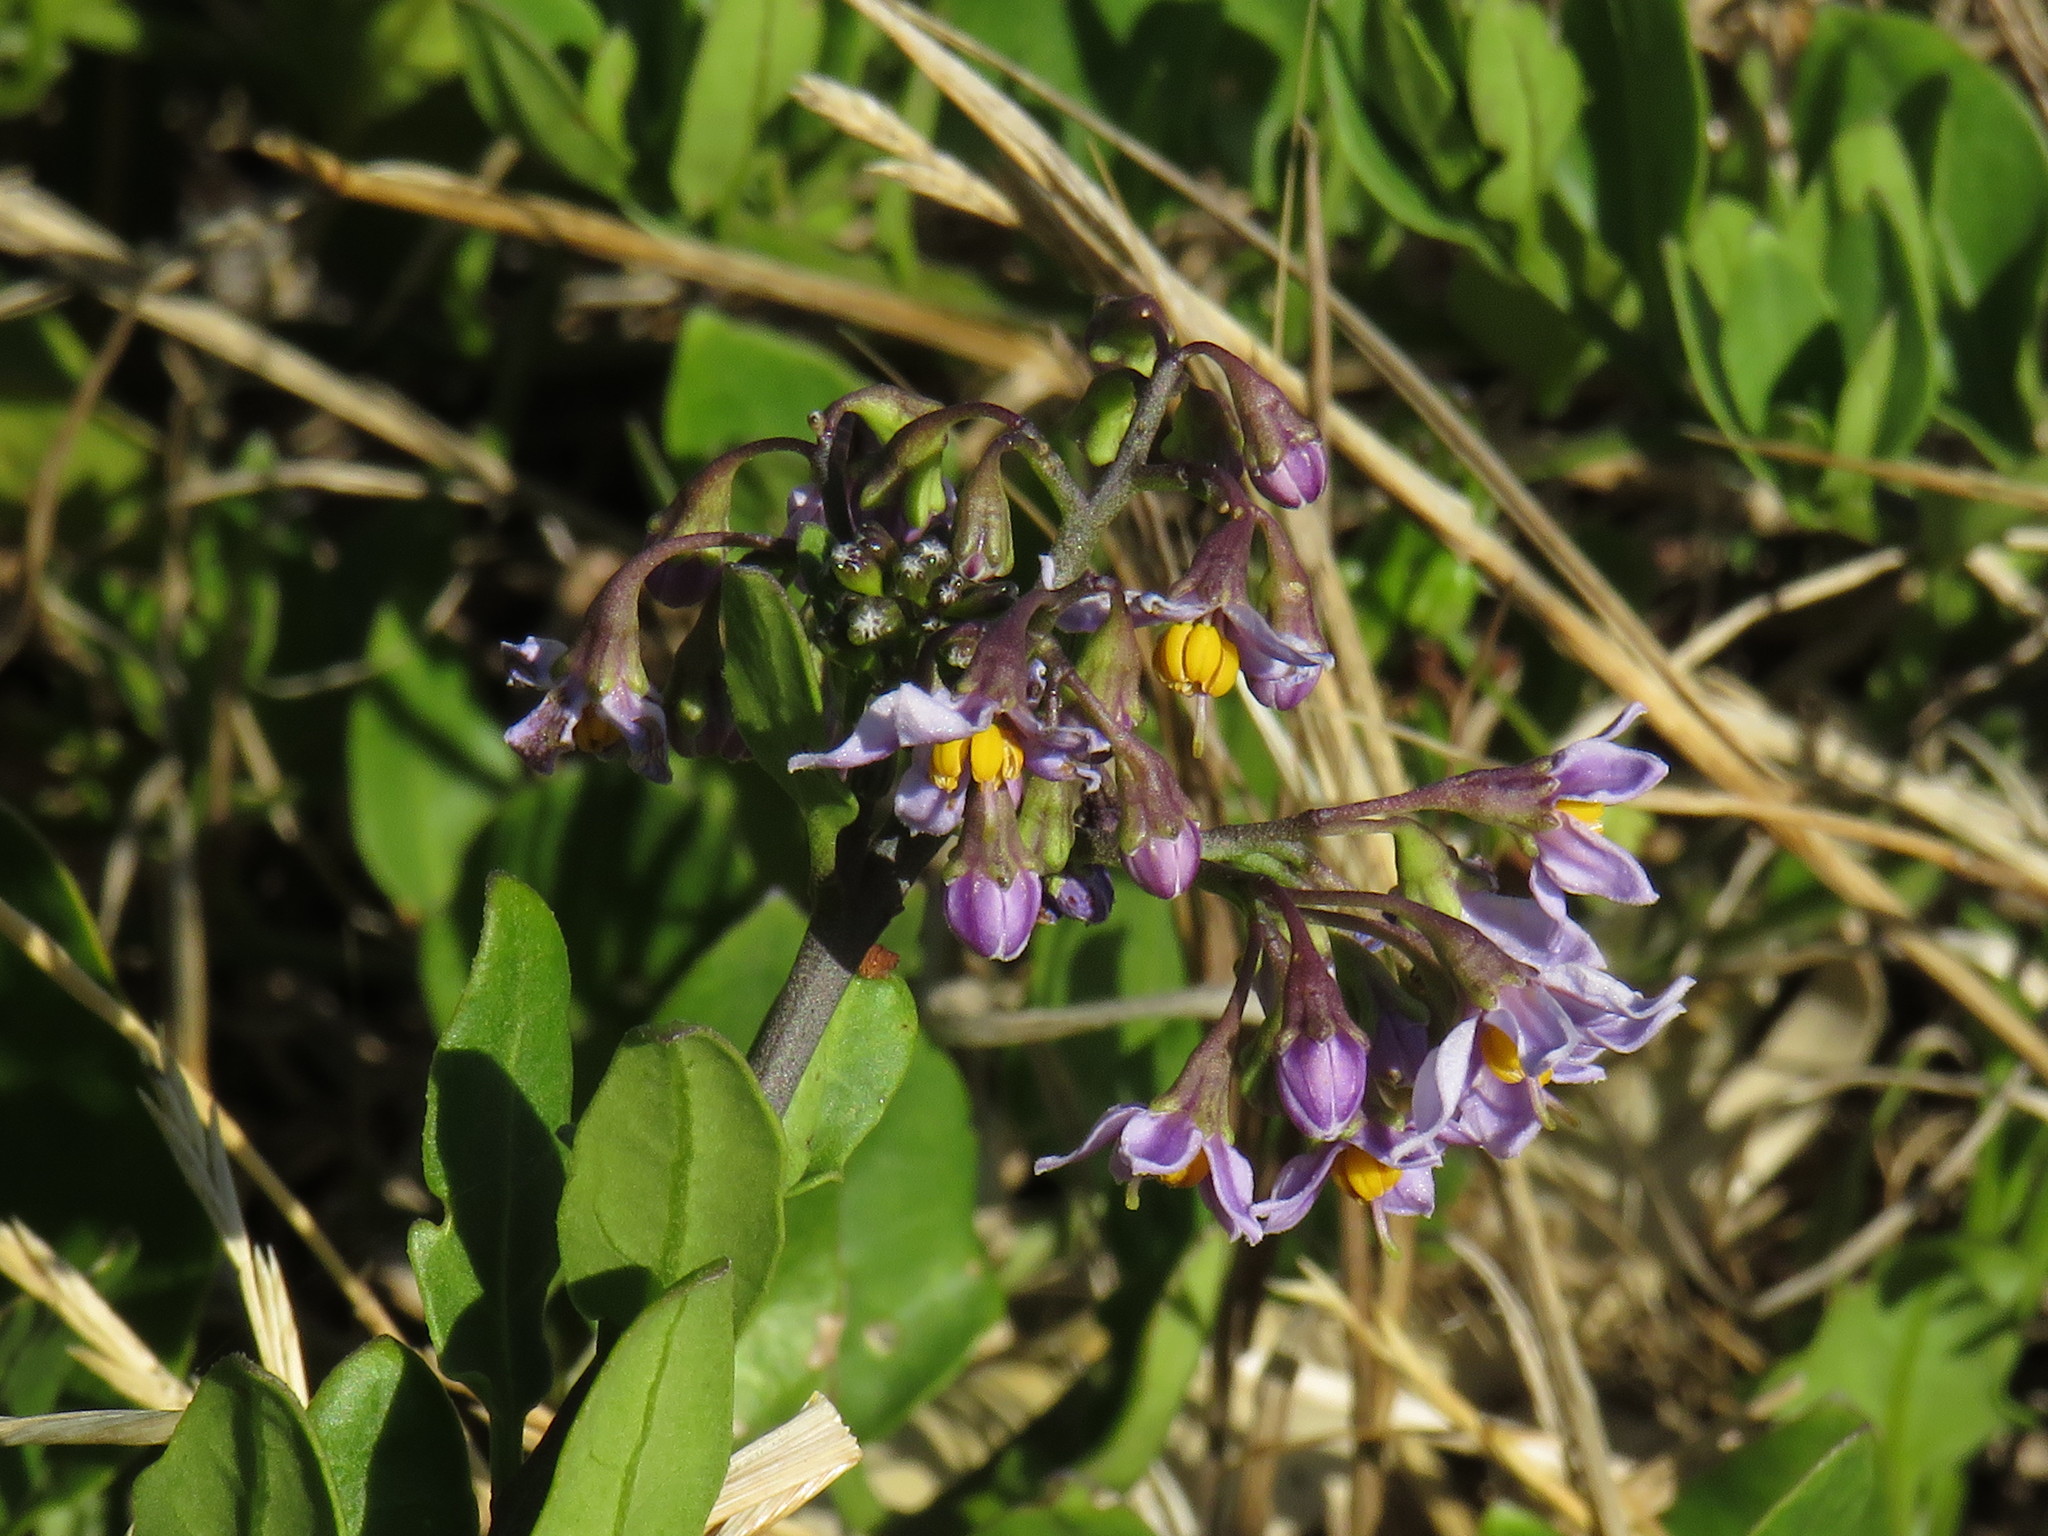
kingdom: Plantae
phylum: Tracheophyta
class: Magnoliopsida
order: Solanales
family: Solanaceae
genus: Solanum
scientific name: Solanum africanum
